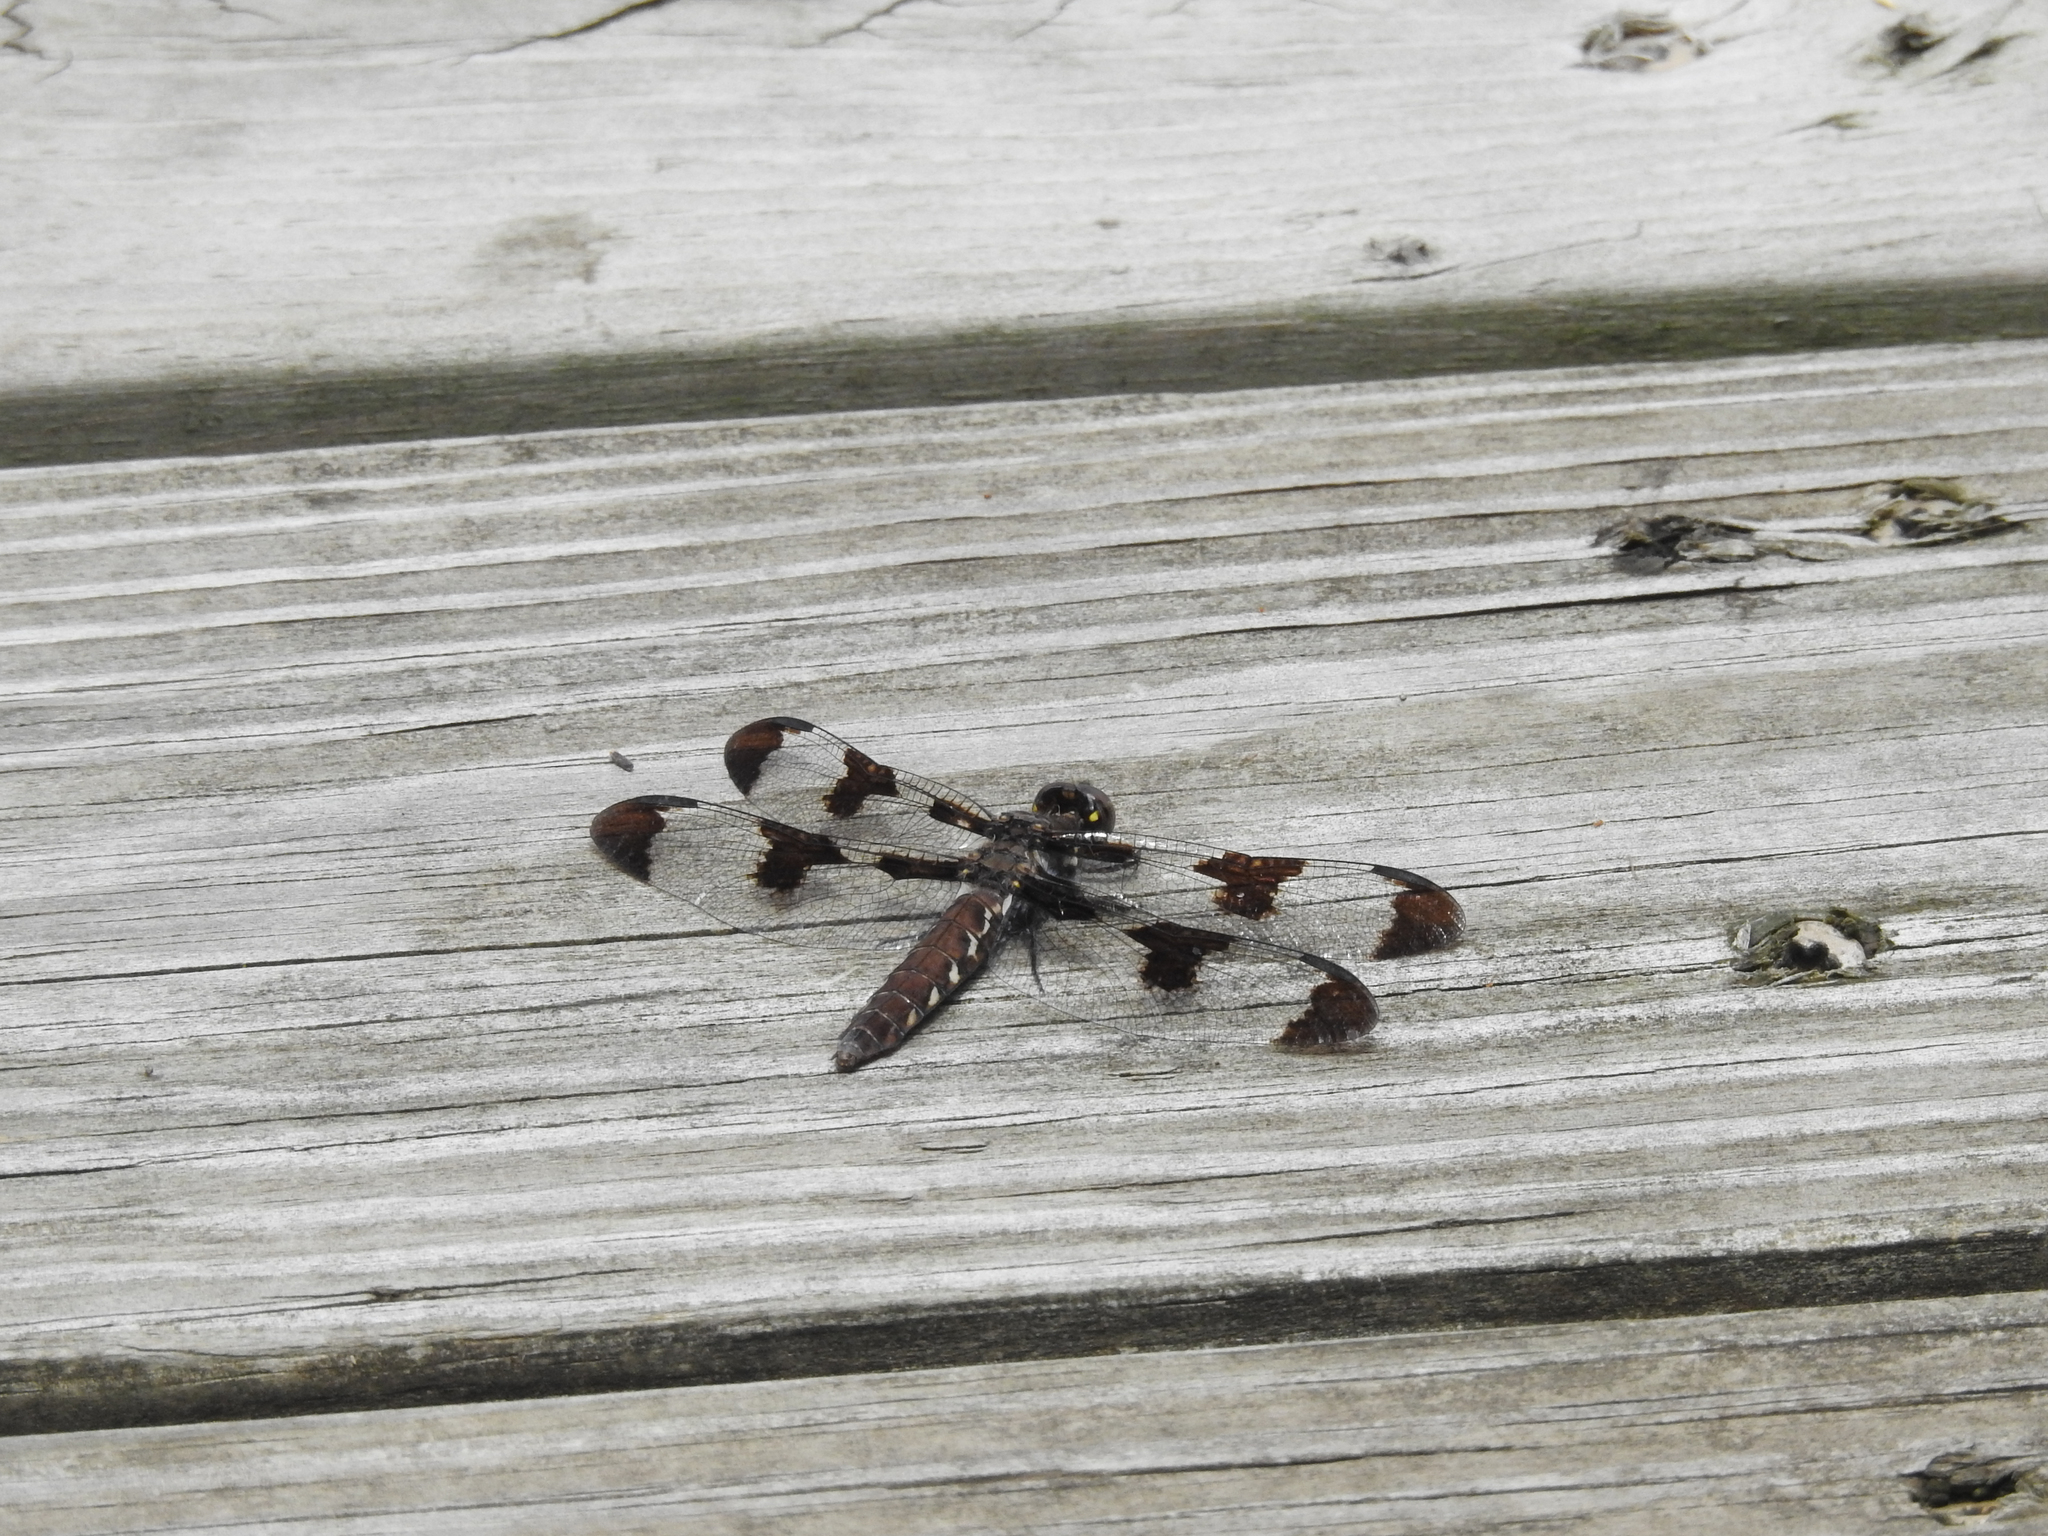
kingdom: Animalia
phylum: Arthropoda
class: Insecta
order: Odonata
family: Libellulidae
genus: Plathemis
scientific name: Plathemis lydia
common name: Common whitetail
